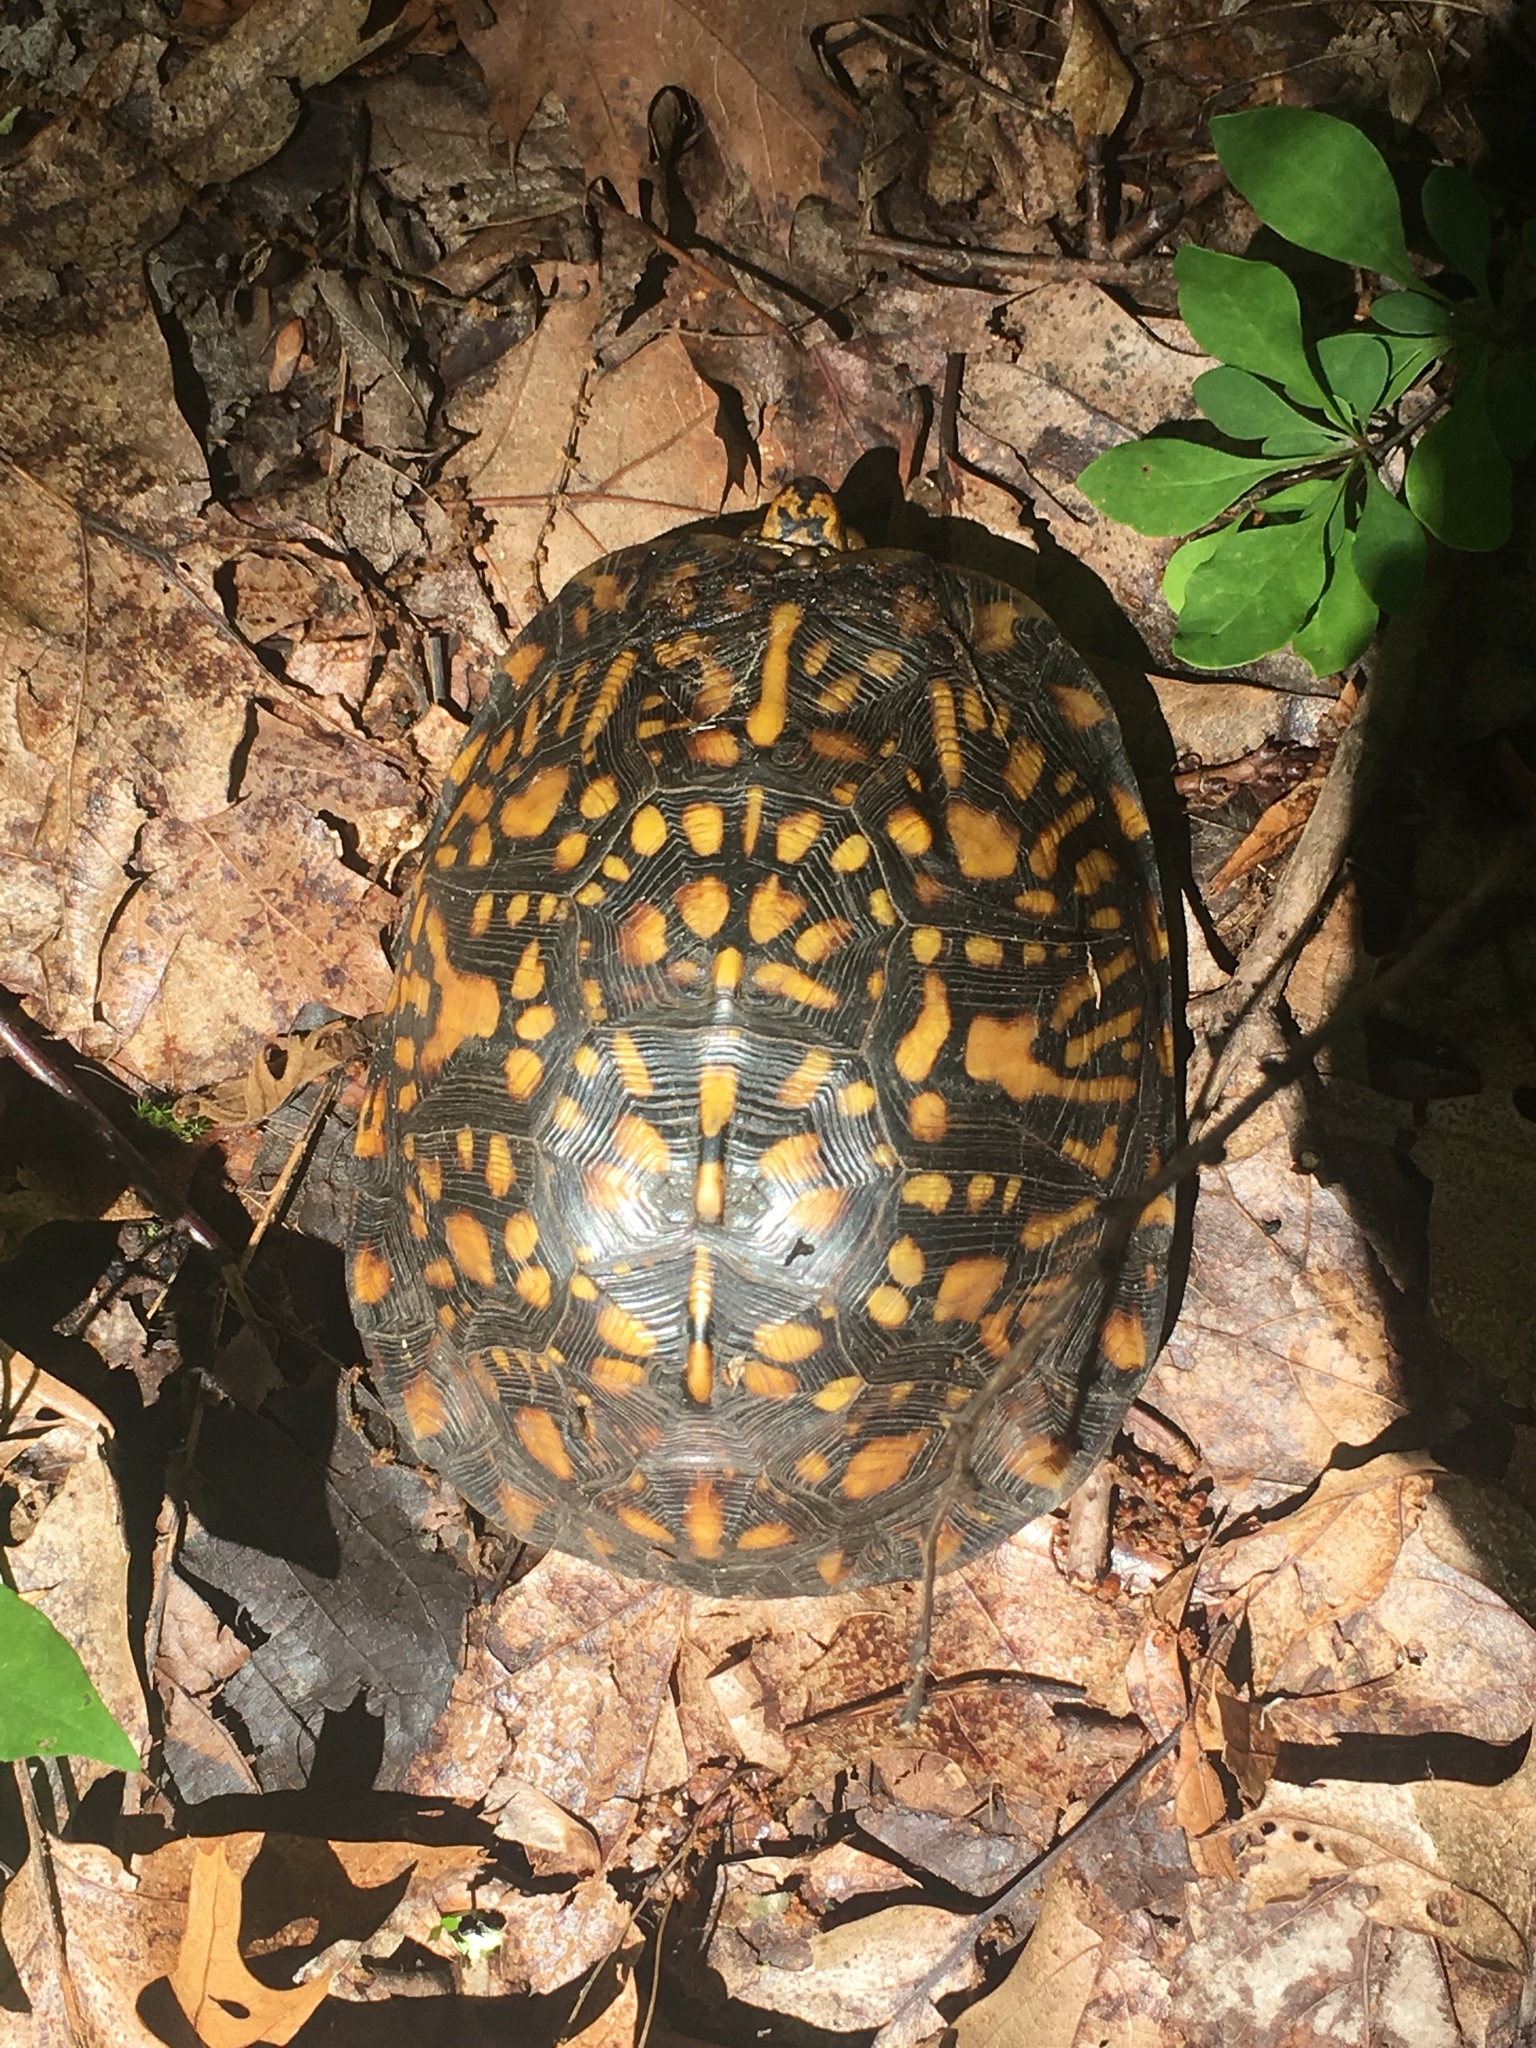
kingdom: Animalia
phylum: Chordata
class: Testudines
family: Emydidae
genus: Terrapene
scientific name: Terrapene carolina
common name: Common box turtle
